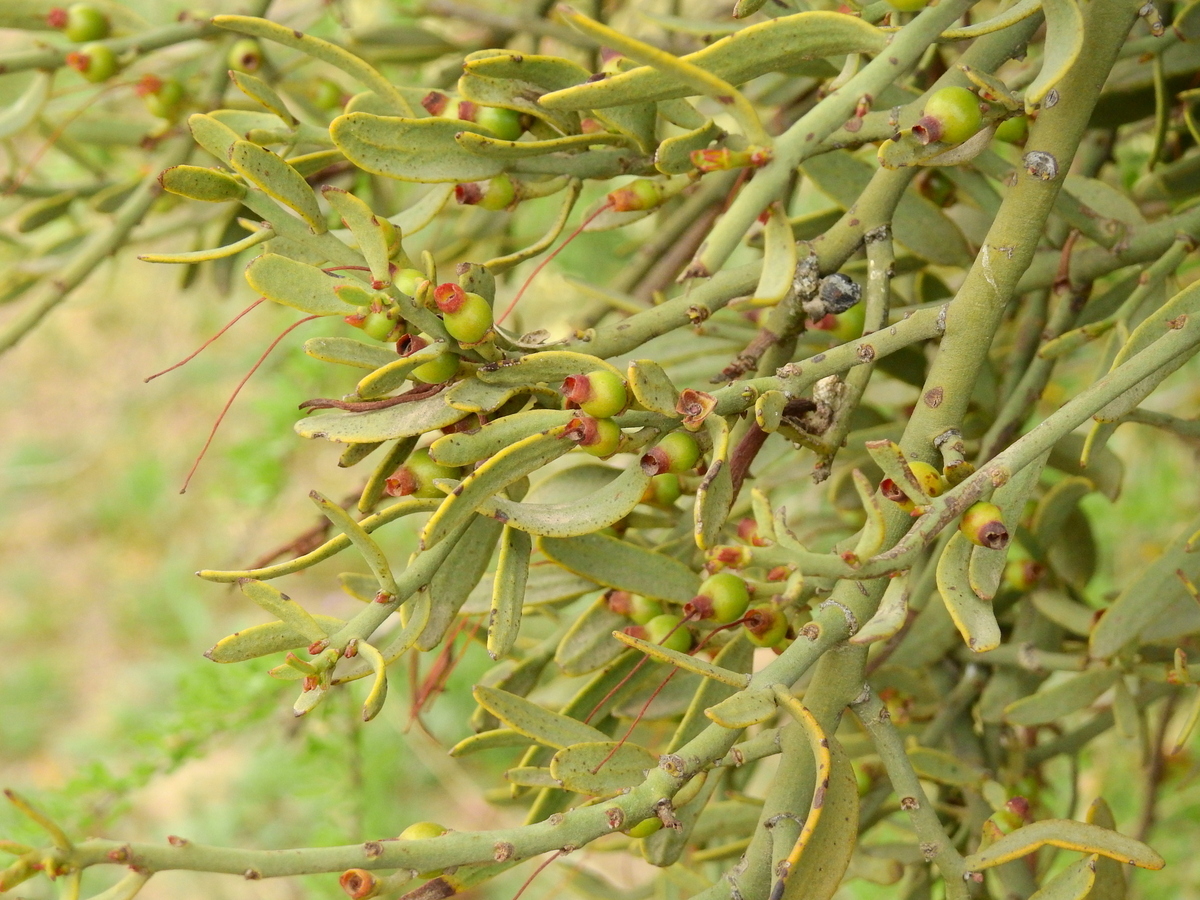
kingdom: Plantae
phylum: Tracheophyta
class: Magnoliopsida
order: Santalales
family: Loranthaceae
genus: Ligaria
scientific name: Ligaria cuneifolia
